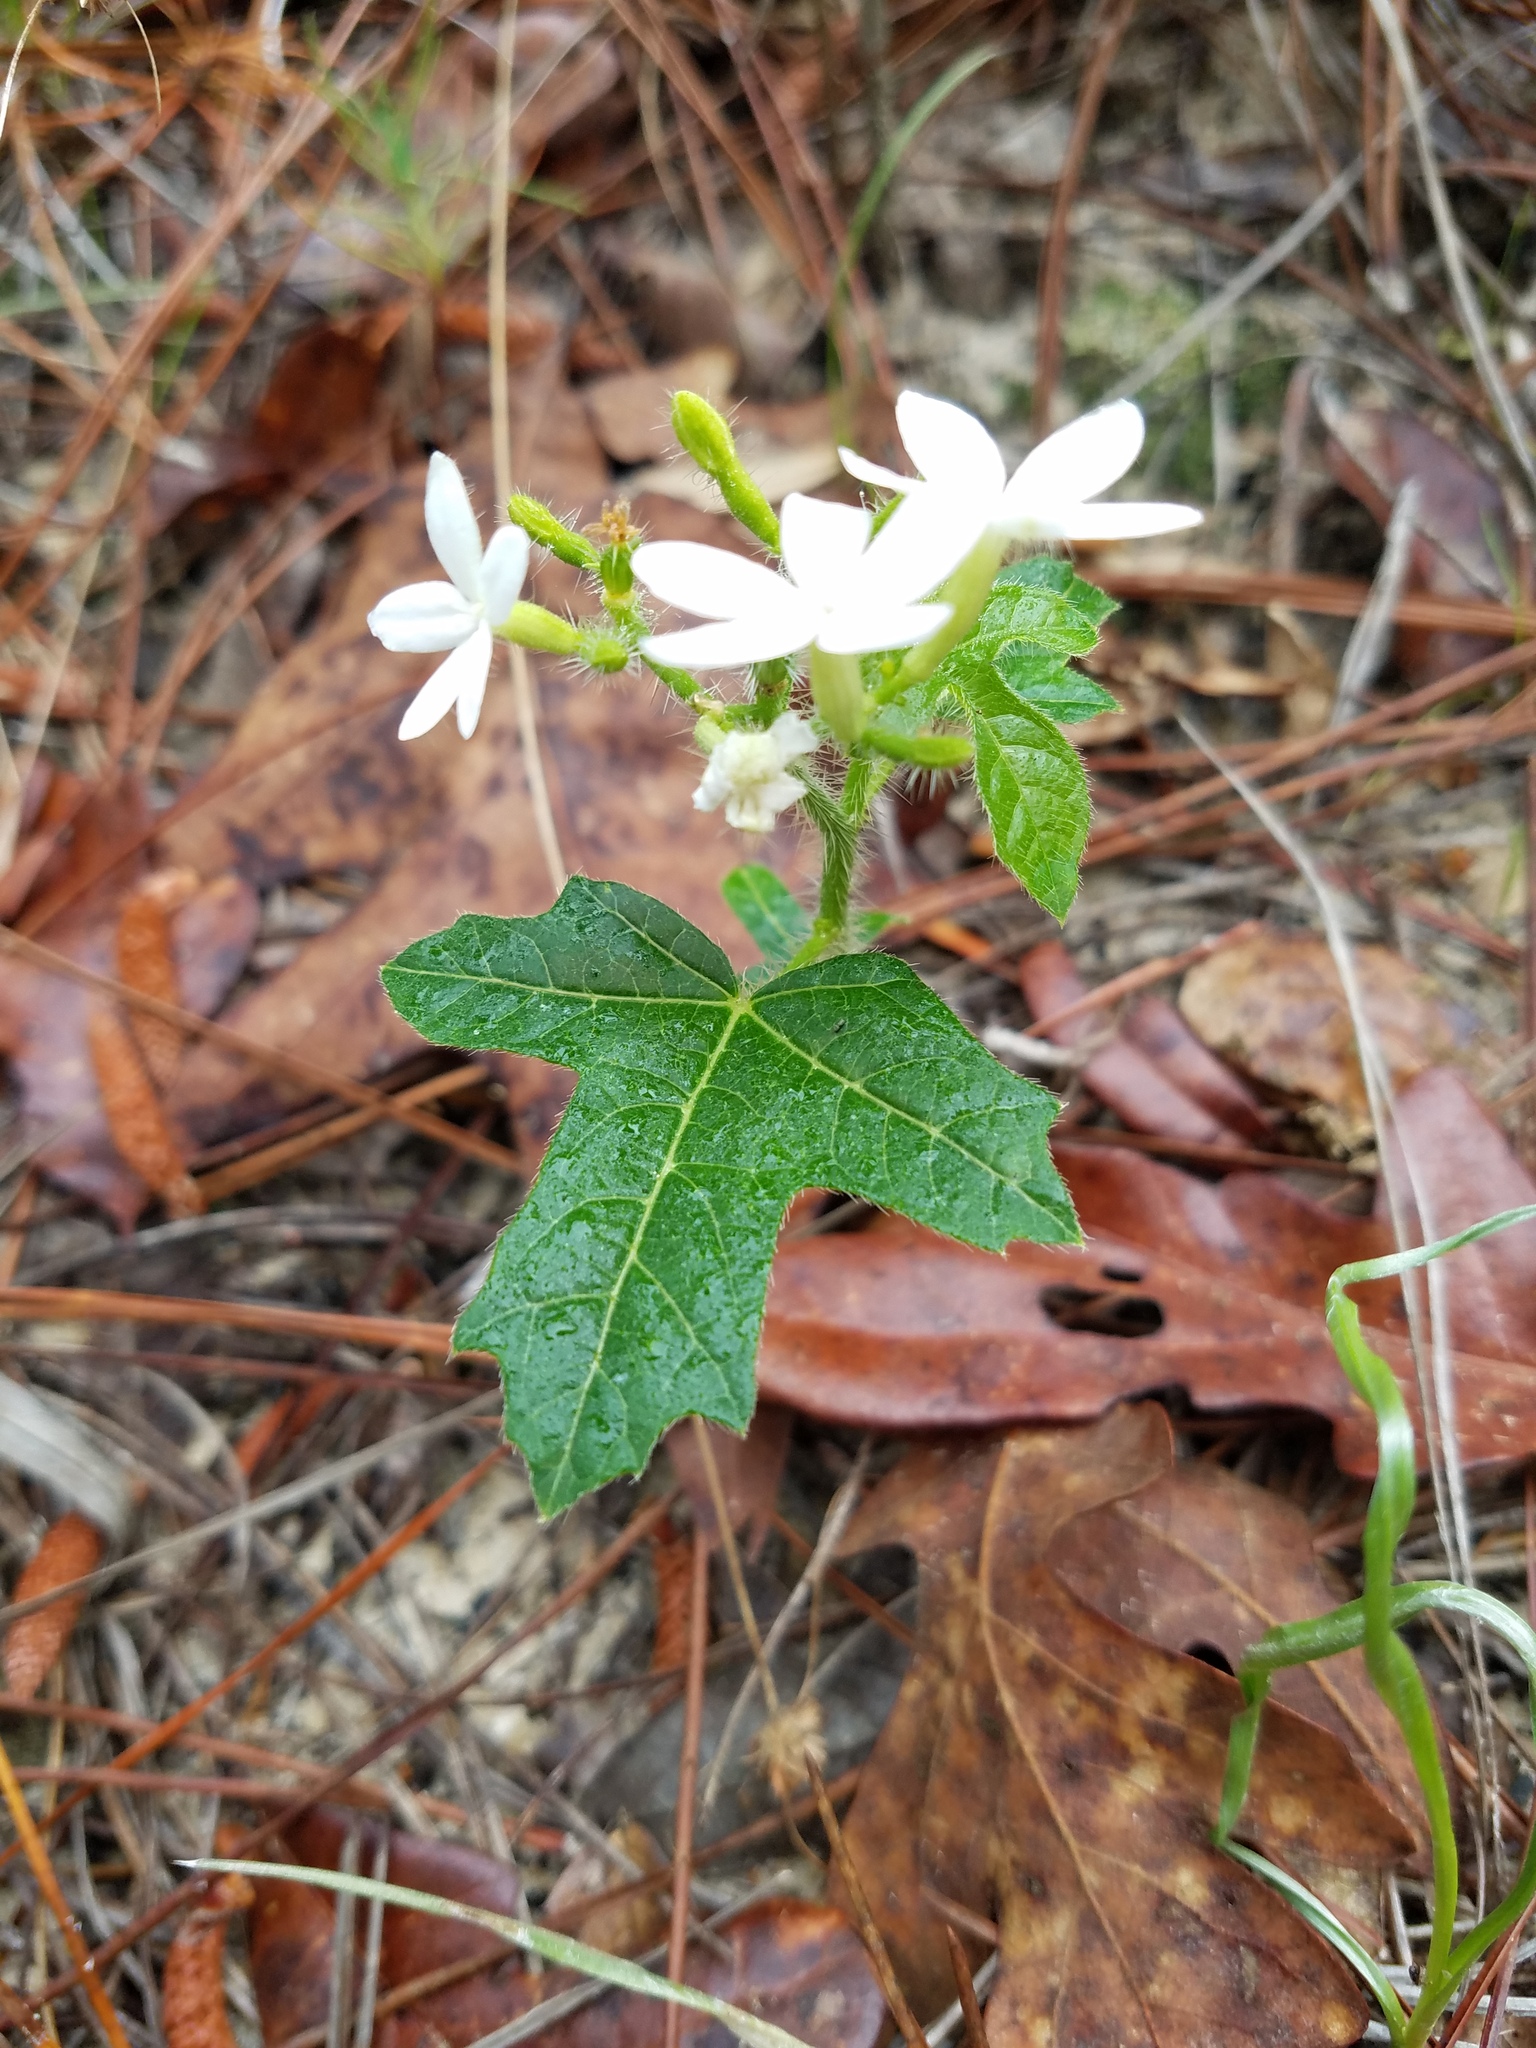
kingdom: Plantae
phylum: Tracheophyta
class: Magnoliopsida
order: Malpighiales
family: Euphorbiaceae
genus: Cnidoscolus
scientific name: Cnidoscolus stimulosus
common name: Bull-nettle
